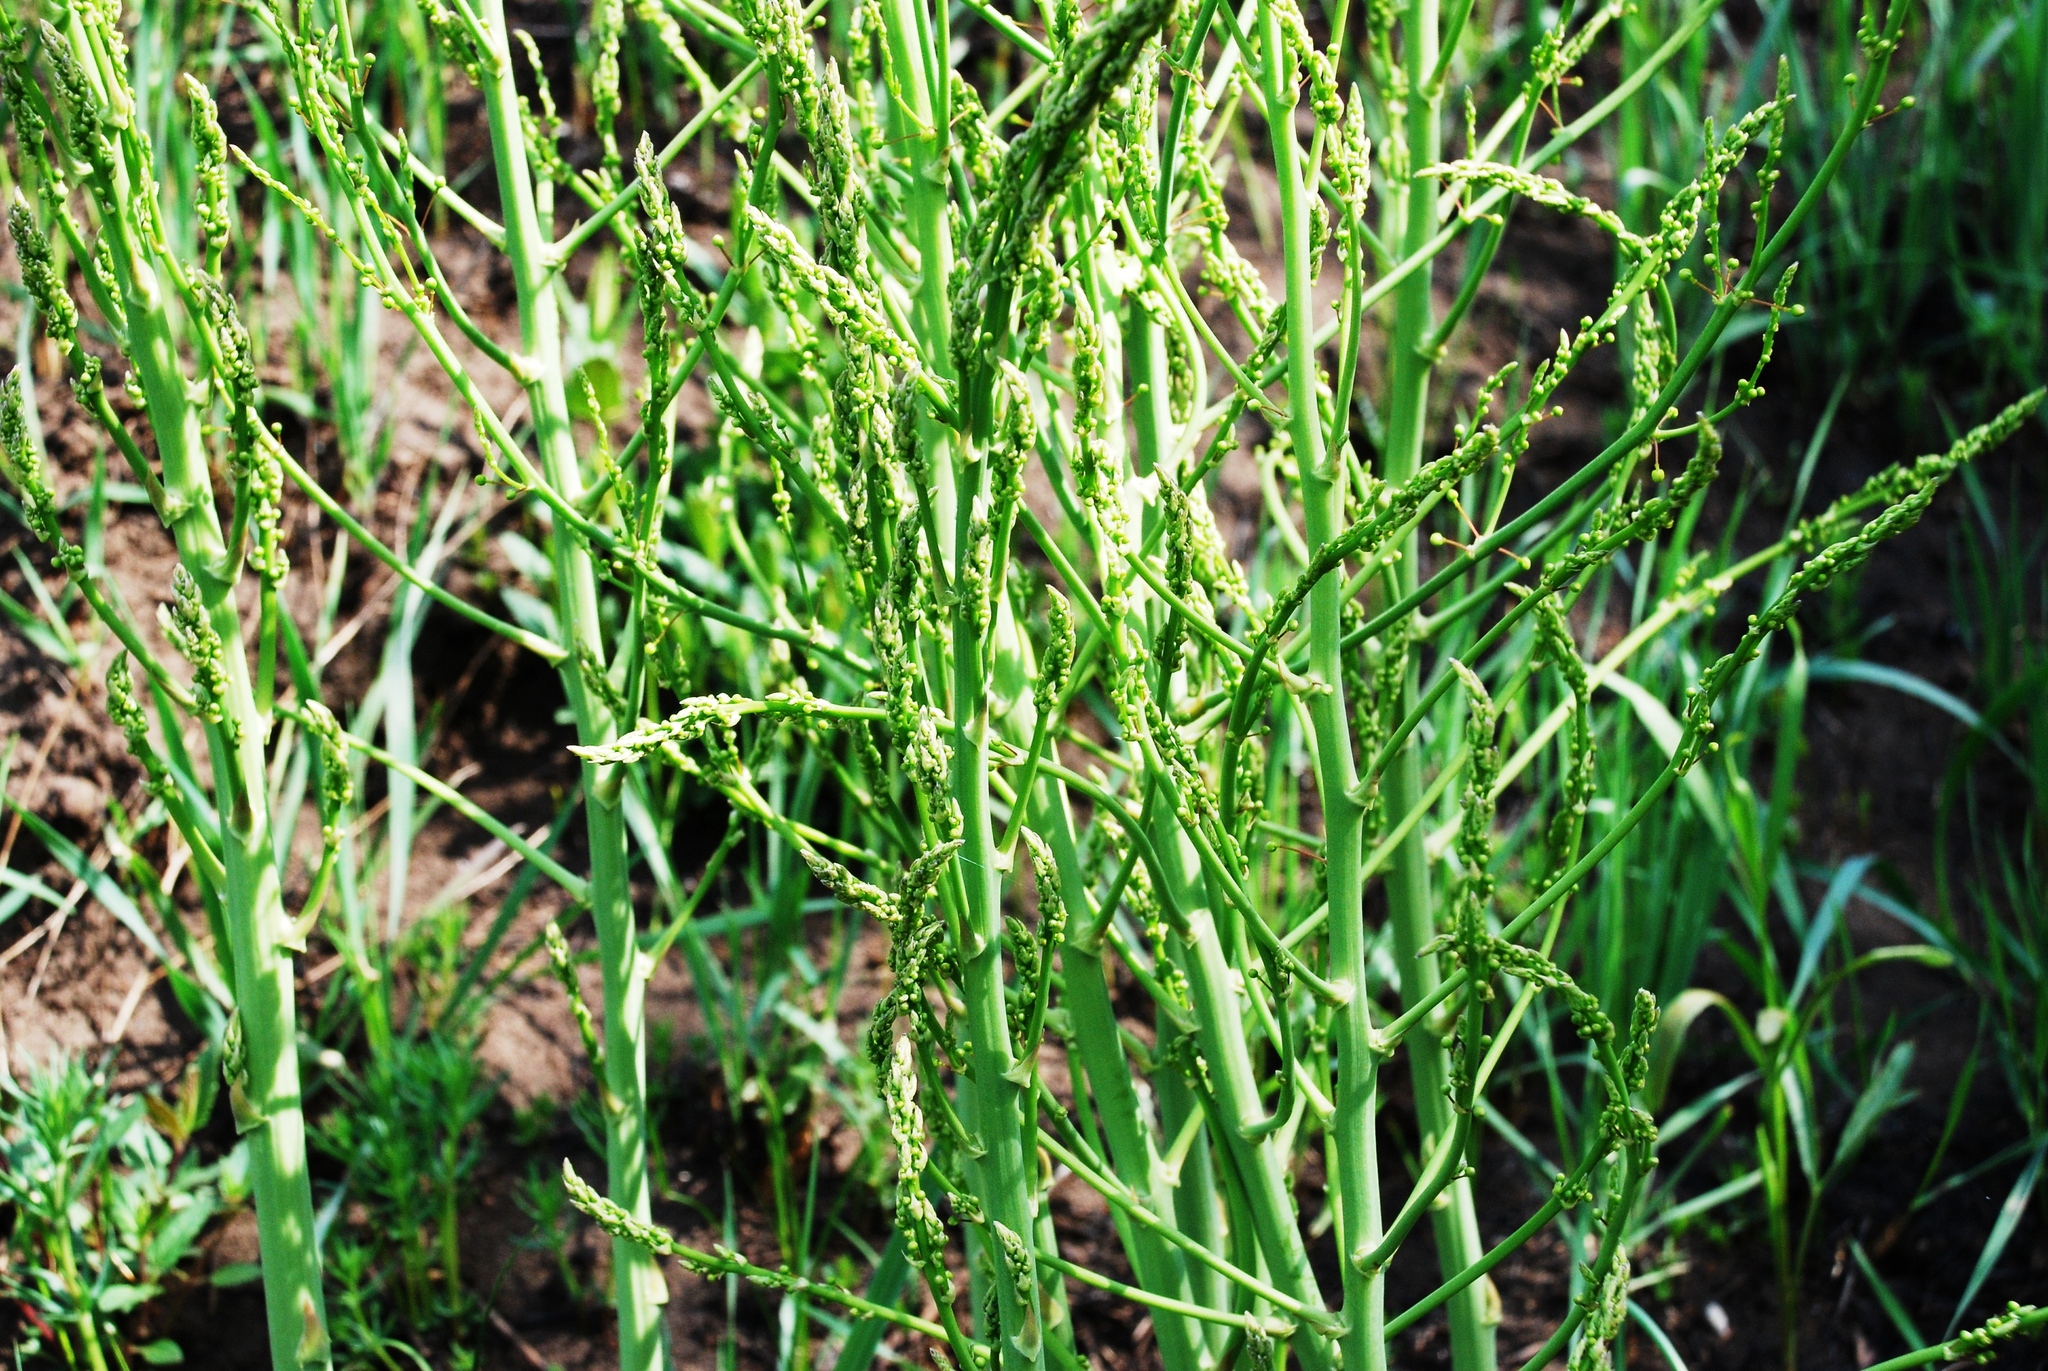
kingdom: Plantae
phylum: Tracheophyta
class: Liliopsida
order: Asparagales
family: Asparagaceae
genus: Asparagus
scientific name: Asparagus officinalis
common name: Garden asparagus
